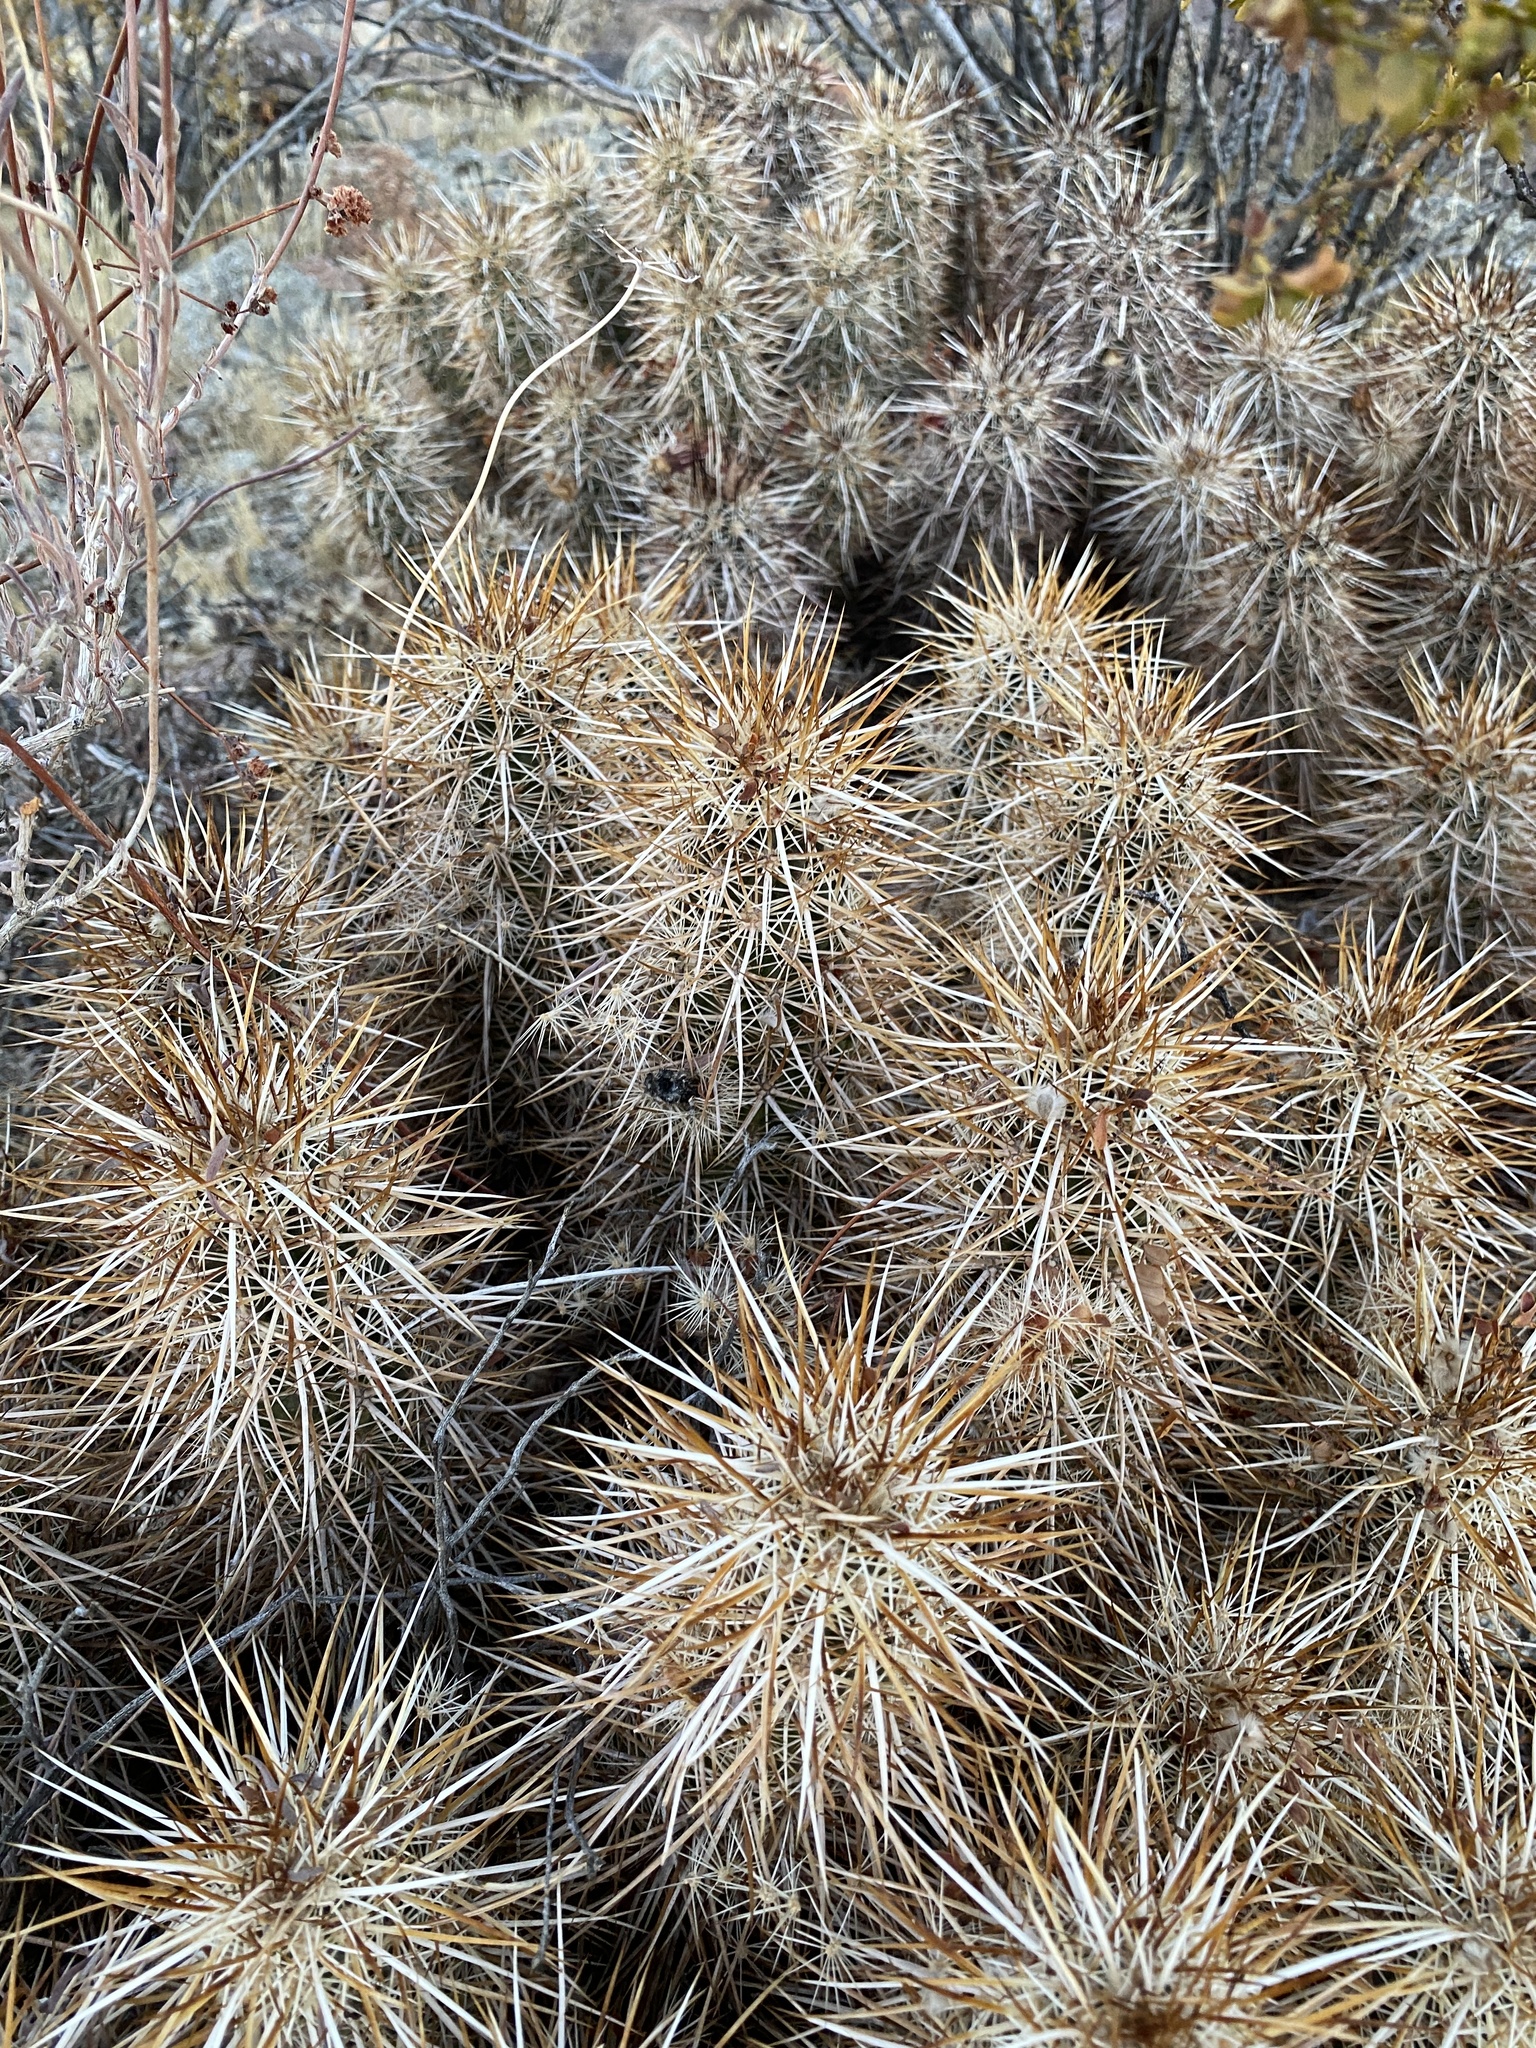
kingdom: Plantae
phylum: Tracheophyta
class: Magnoliopsida
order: Caryophyllales
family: Cactaceae
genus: Echinocereus
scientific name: Echinocereus engelmannii
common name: Engelmann's hedgehog cactus
